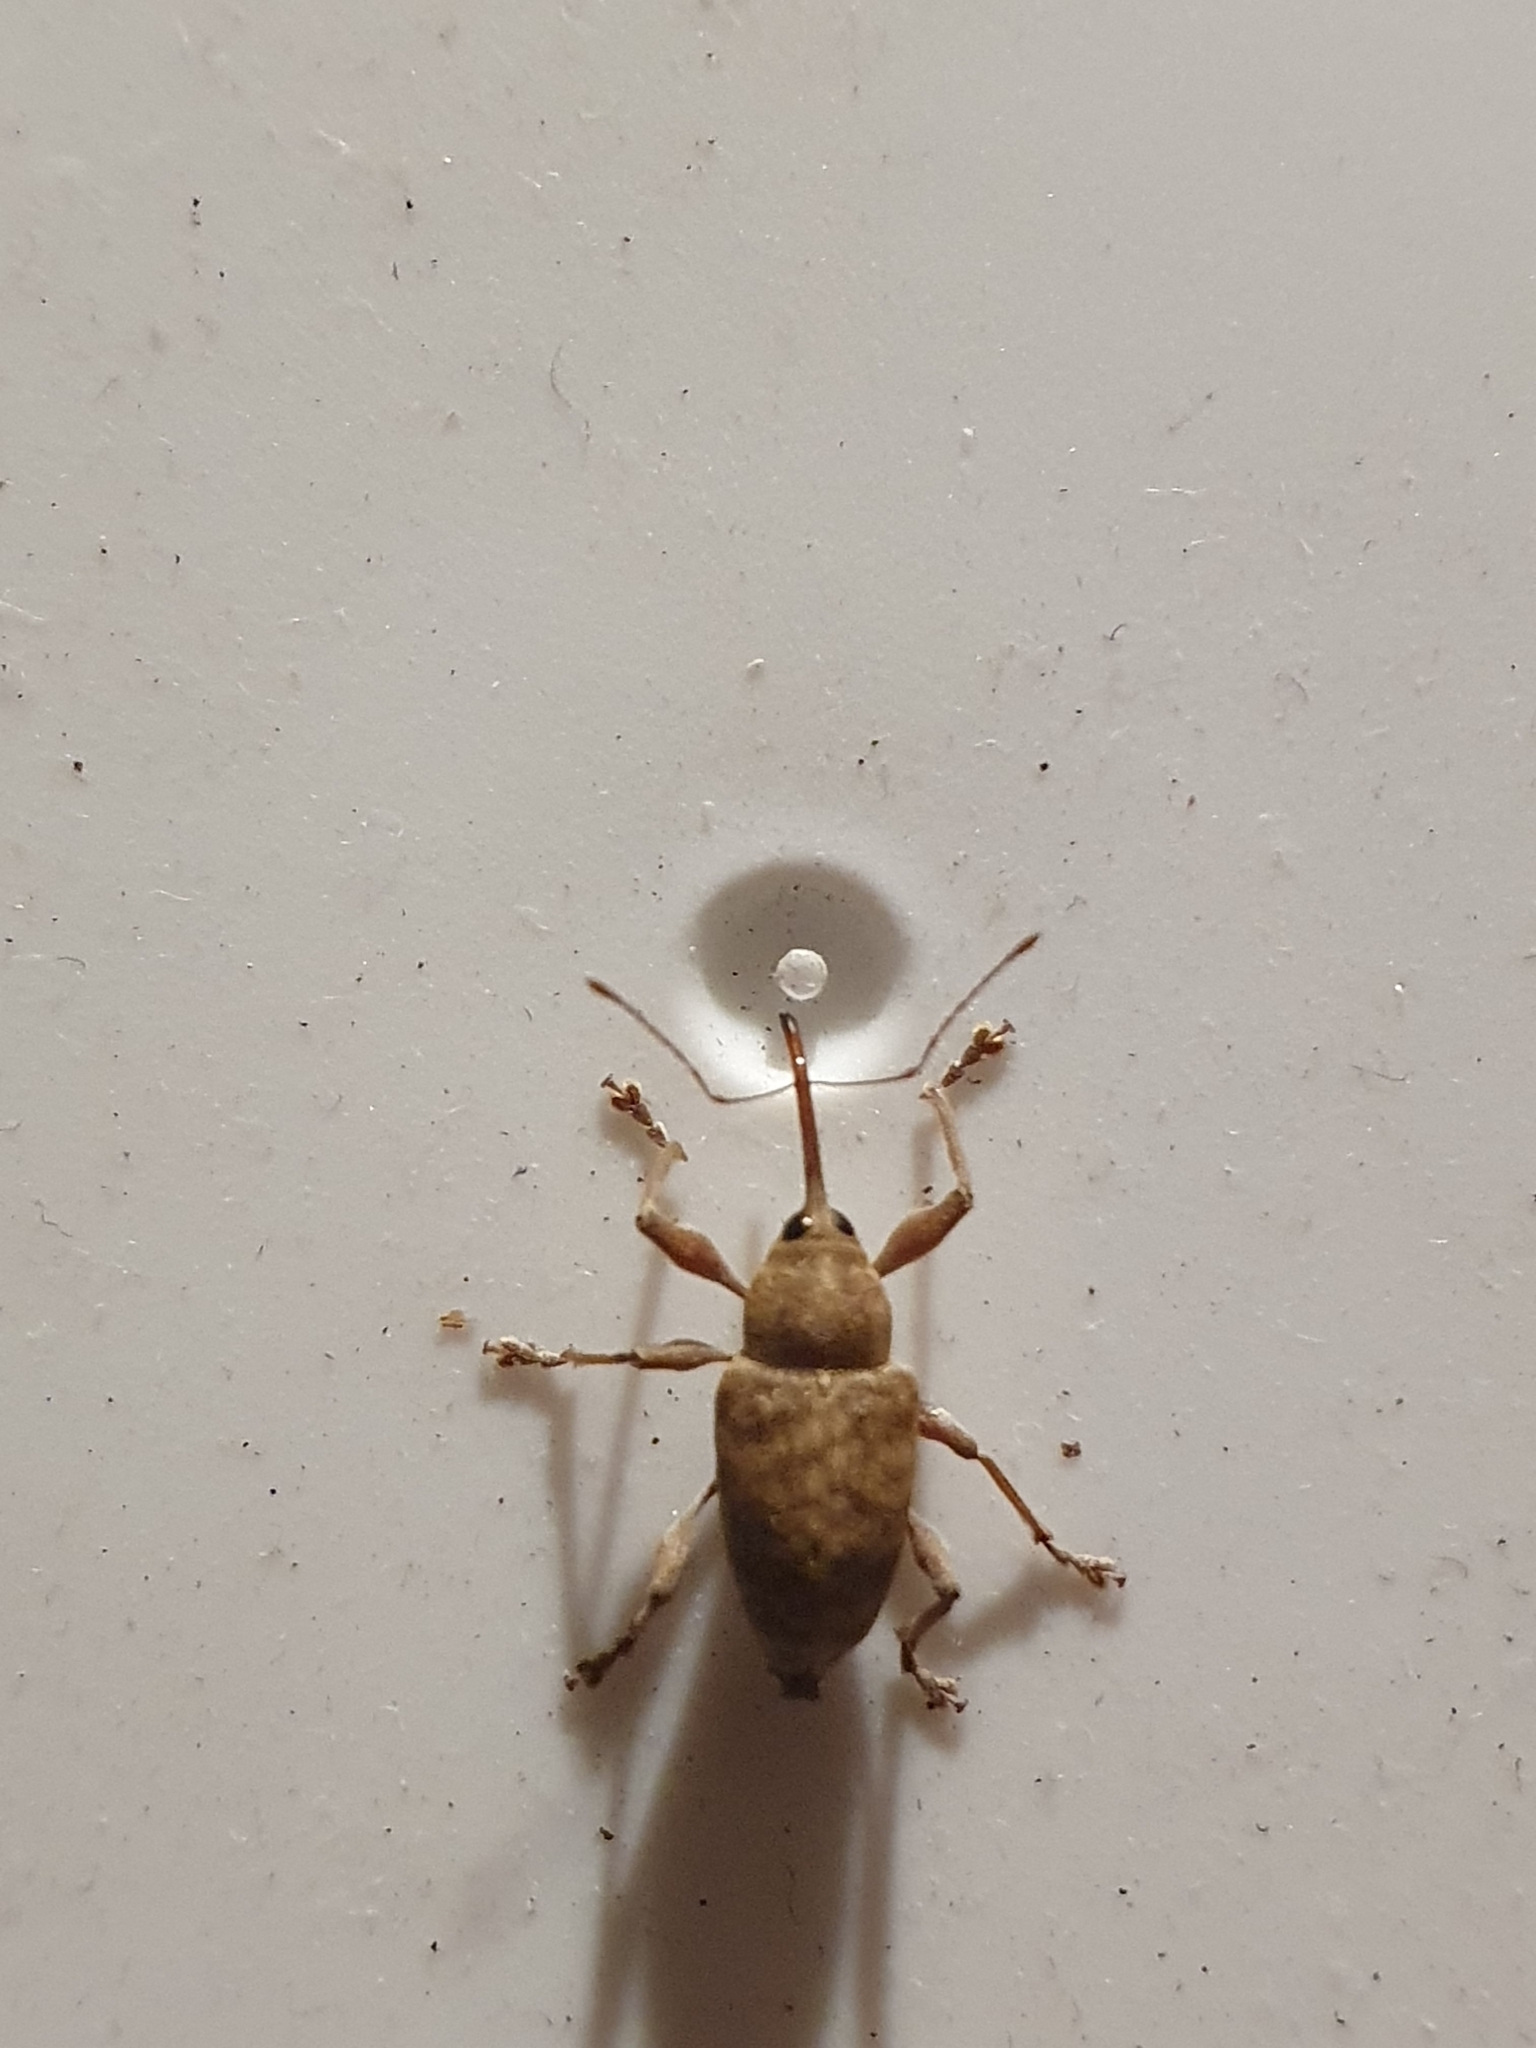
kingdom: Animalia
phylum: Arthropoda
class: Insecta
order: Coleoptera
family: Curculionidae
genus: Curculio
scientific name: Curculio elephas
